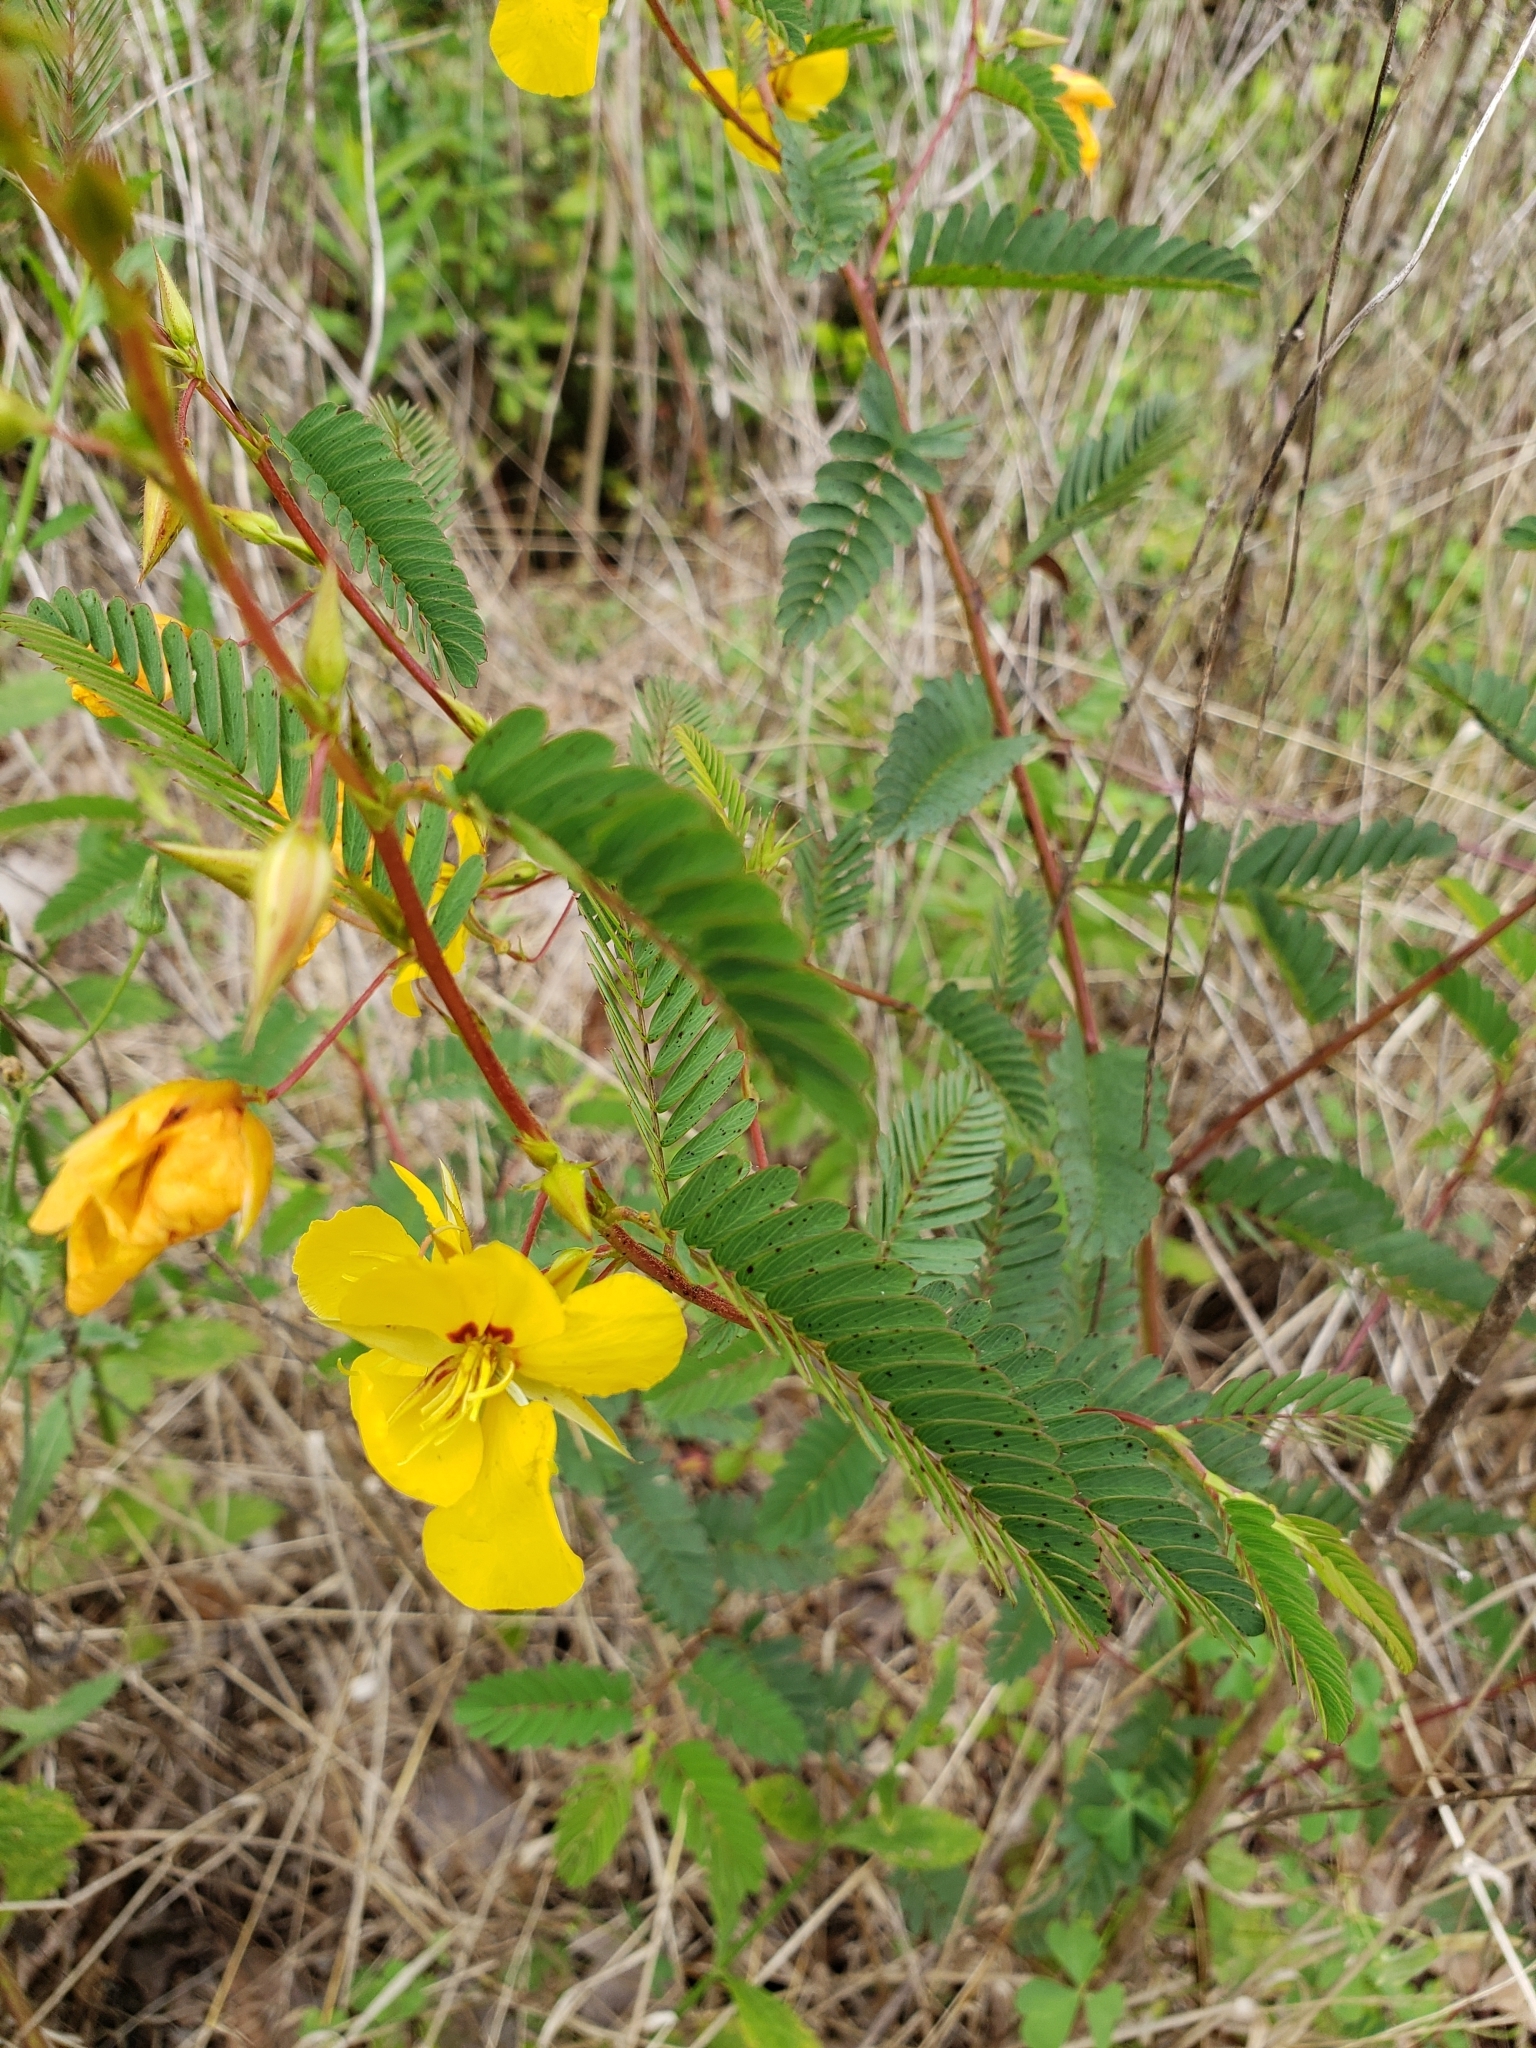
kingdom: Plantae
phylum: Tracheophyta
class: Magnoliopsida
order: Fabales
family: Fabaceae
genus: Chamaecrista
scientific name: Chamaecrista fasciculata
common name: Golden cassia
